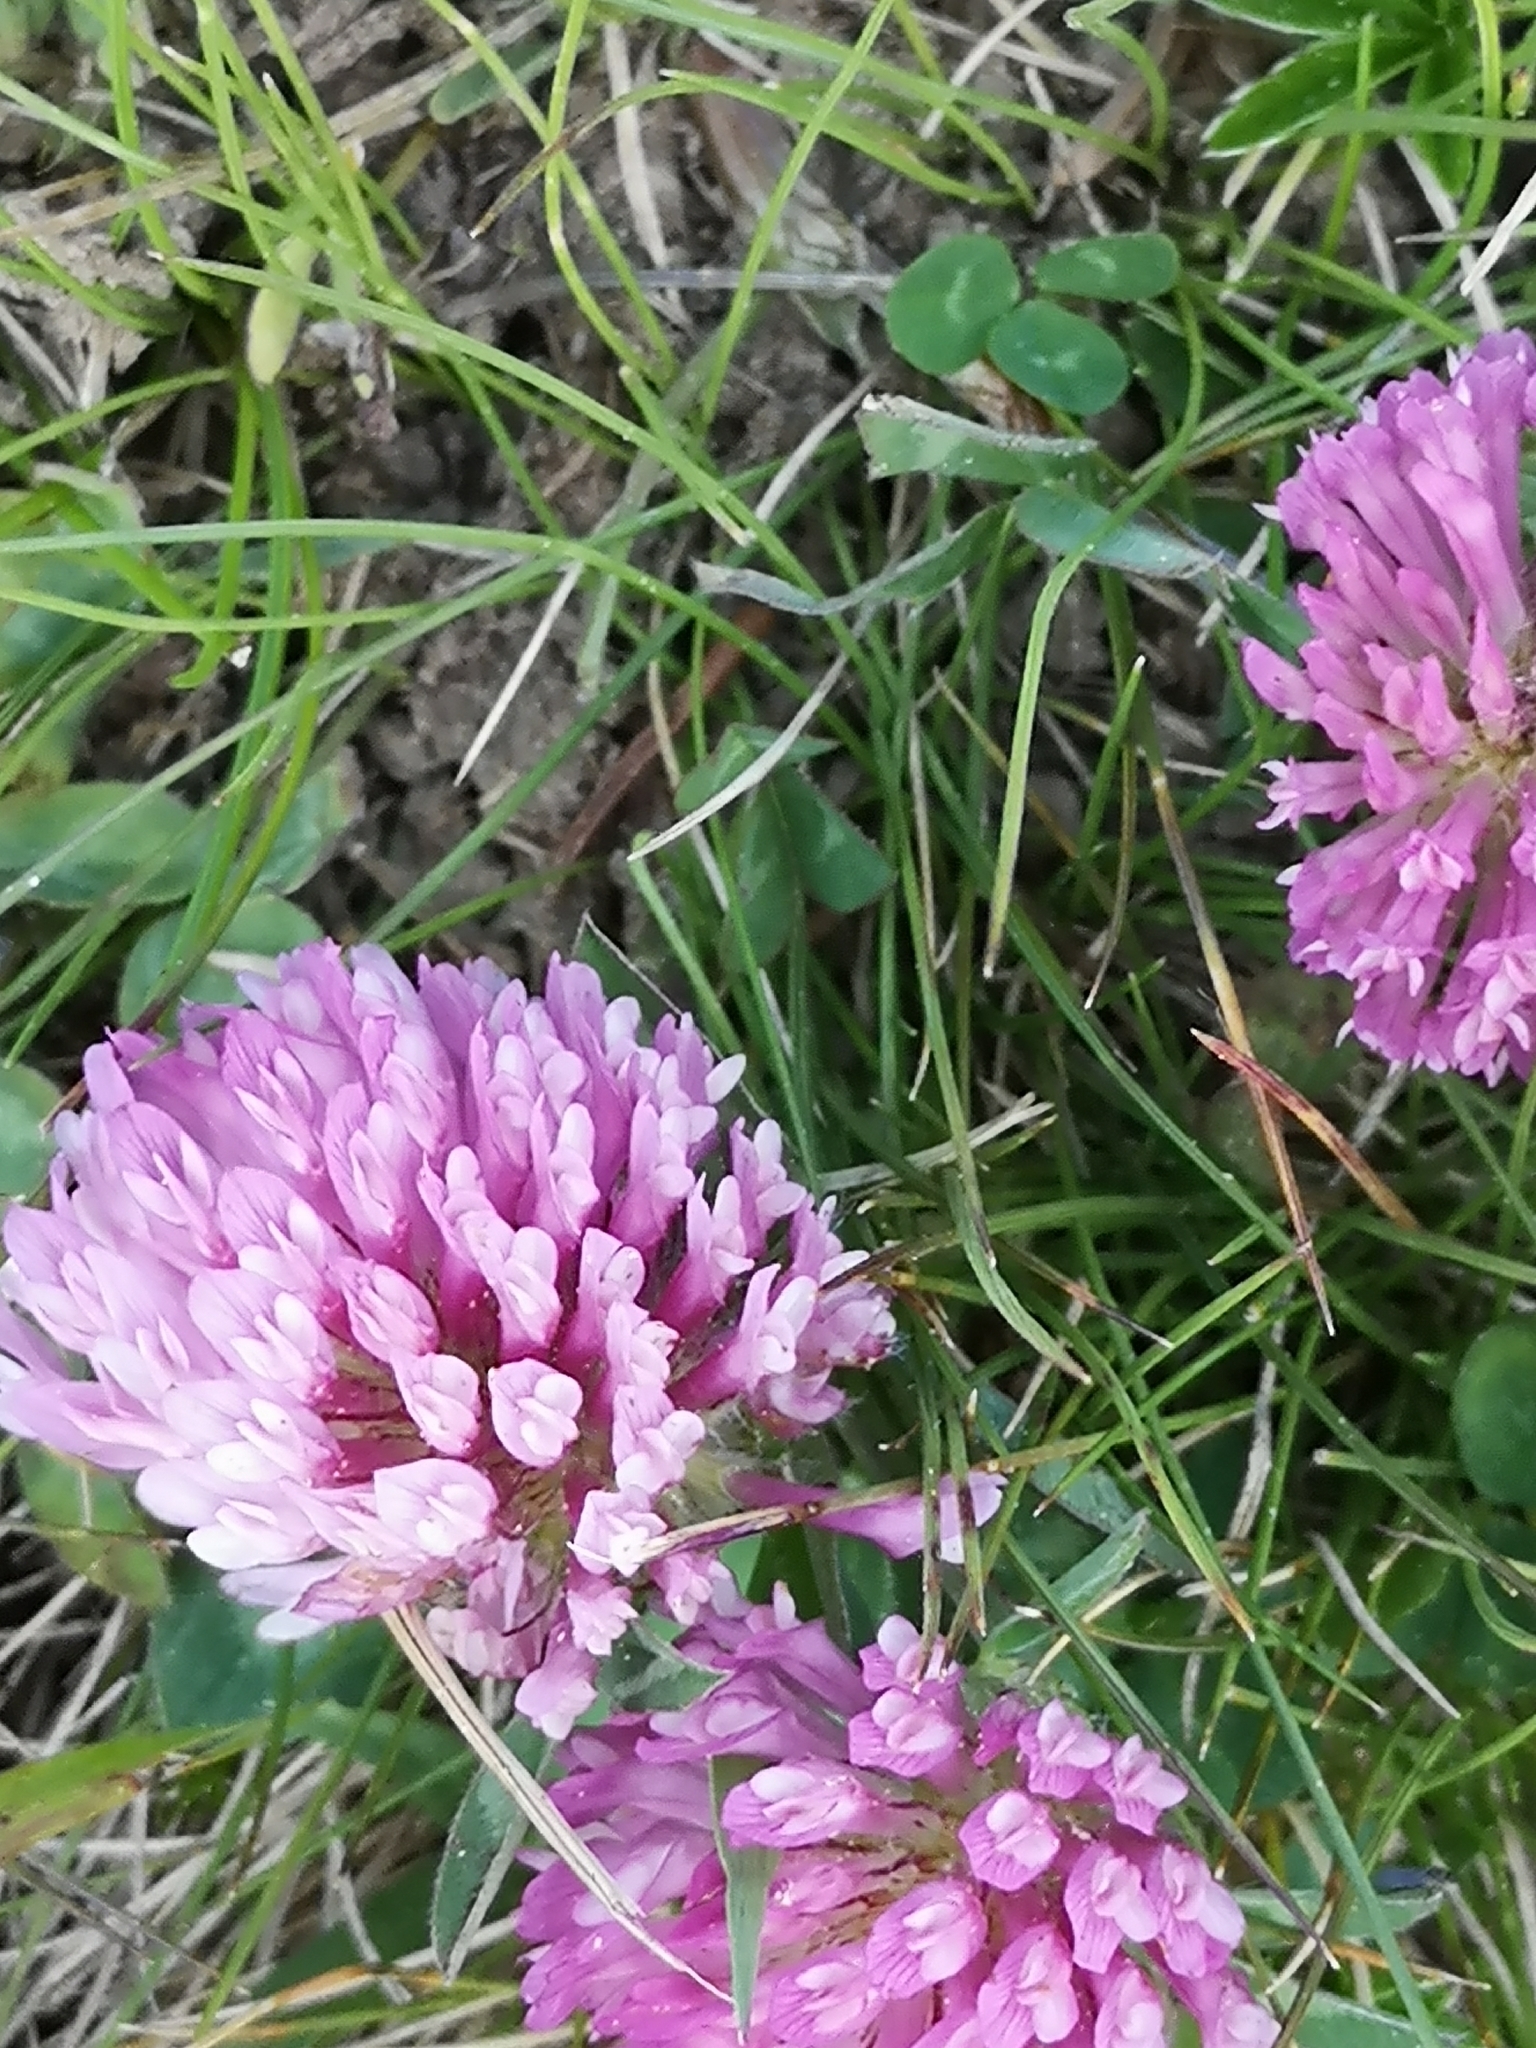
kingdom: Plantae
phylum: Tracheophyta
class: Magnoliopsida
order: Fabales
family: Fabaceae
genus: Trifolium
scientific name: Trifolium pratense
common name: Red clover
